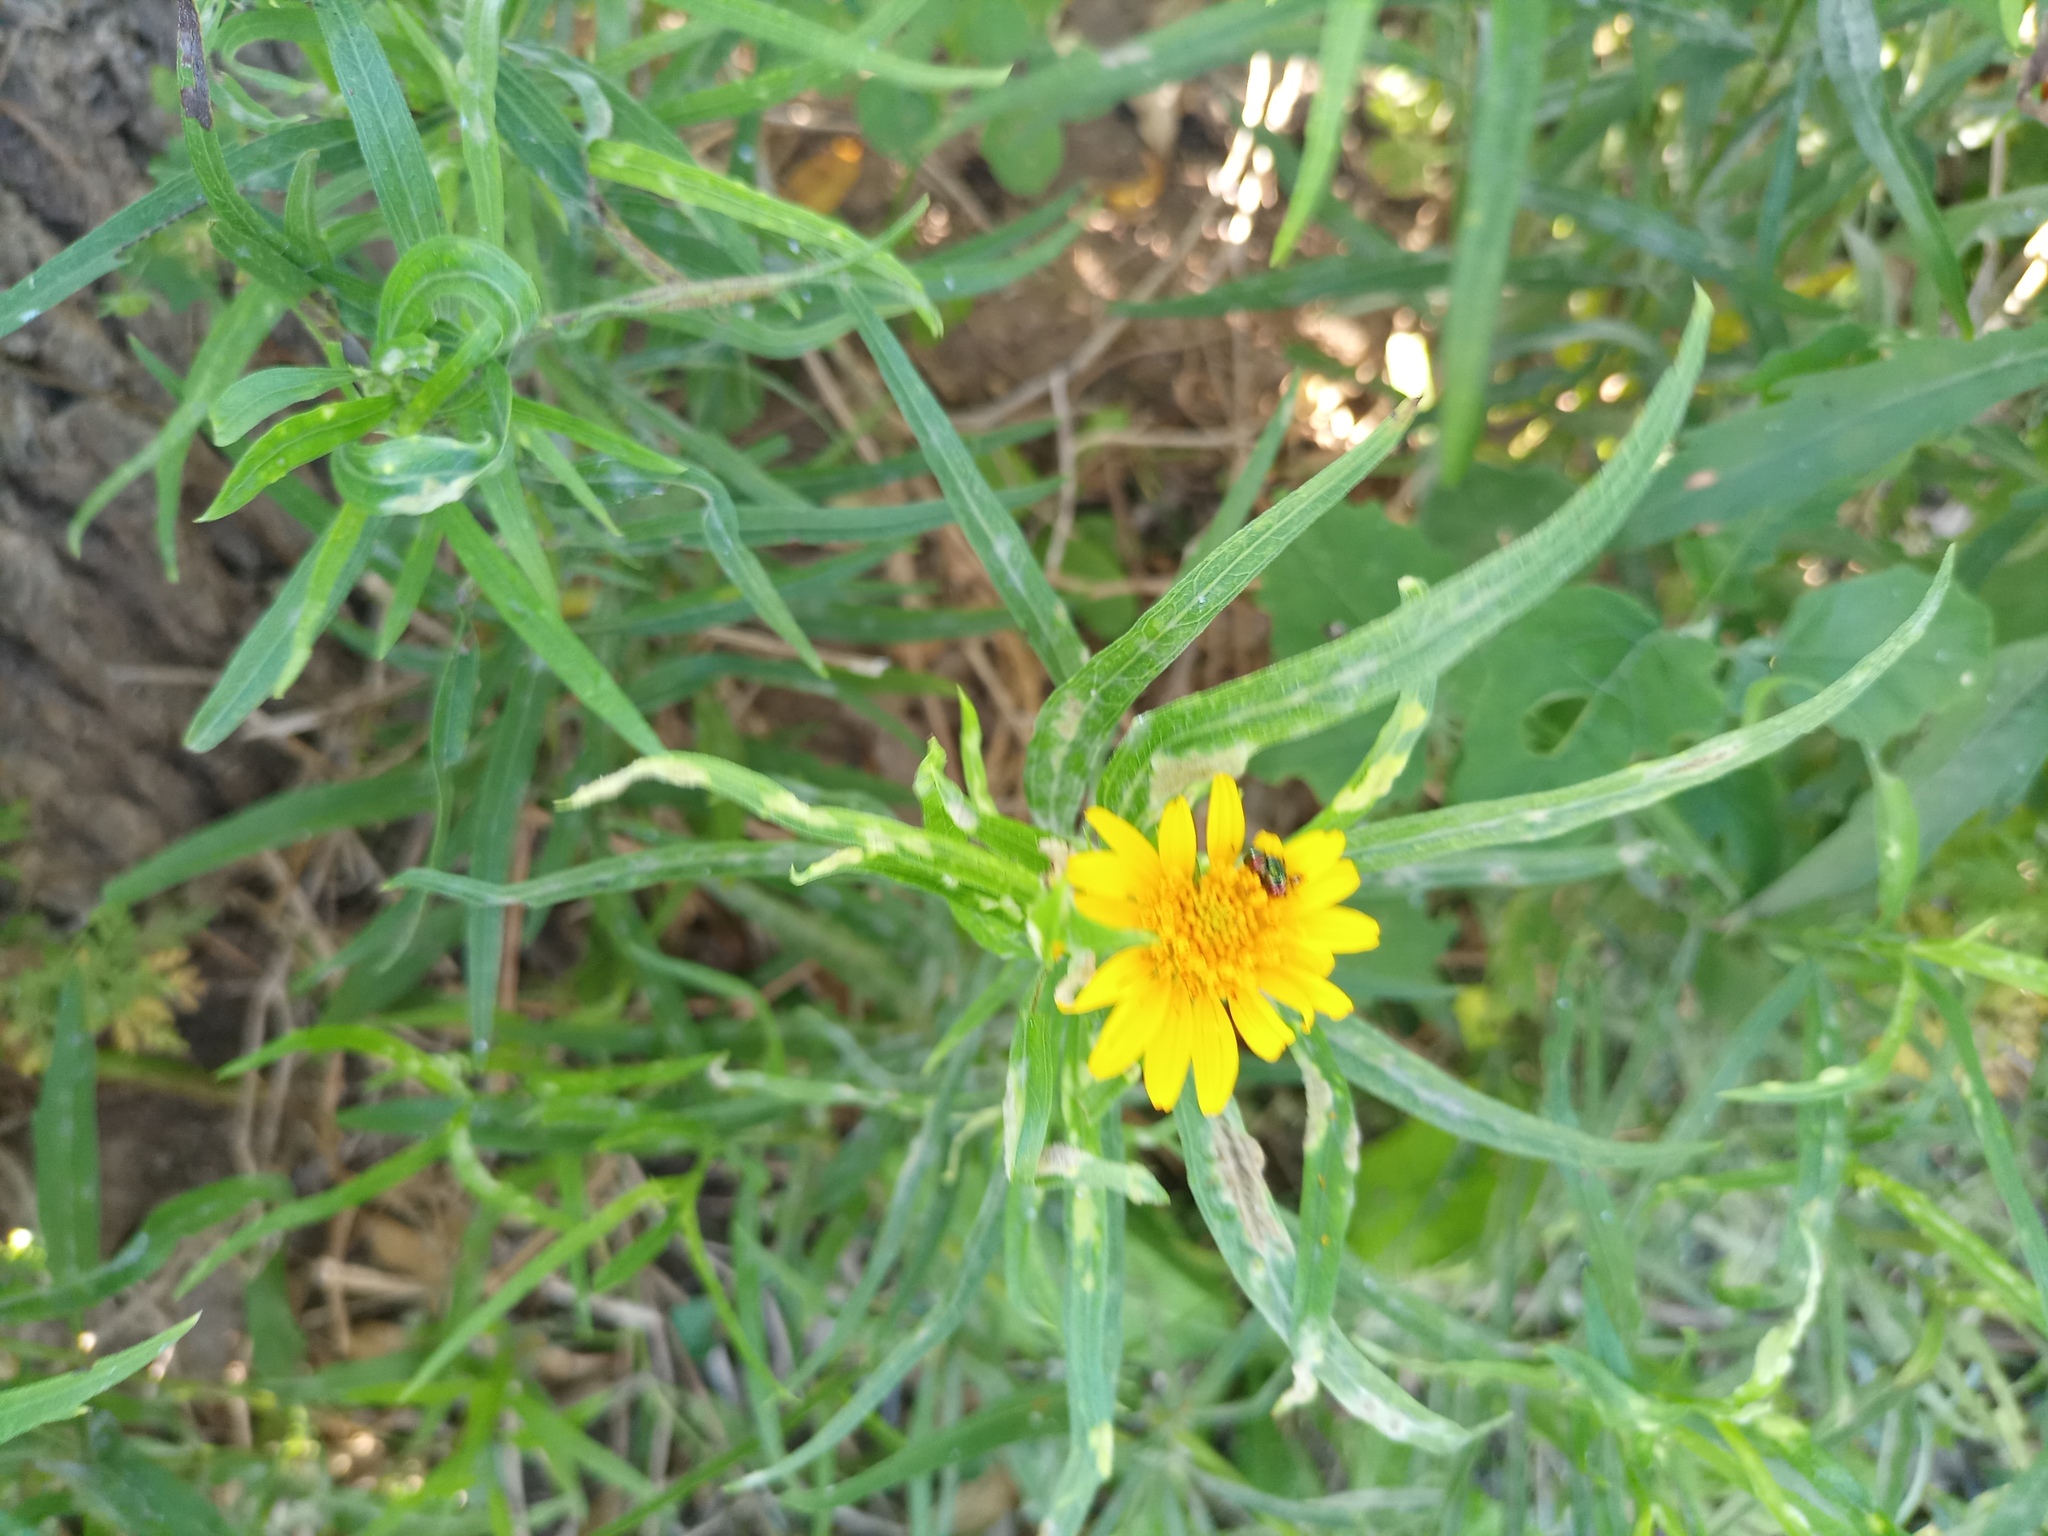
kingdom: Plantae
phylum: Tracheophyta
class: Magnoliopsida
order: Asterales
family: Asteraceae
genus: Pascalia
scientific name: Pascalia glauca
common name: Beach creeping oxeye
